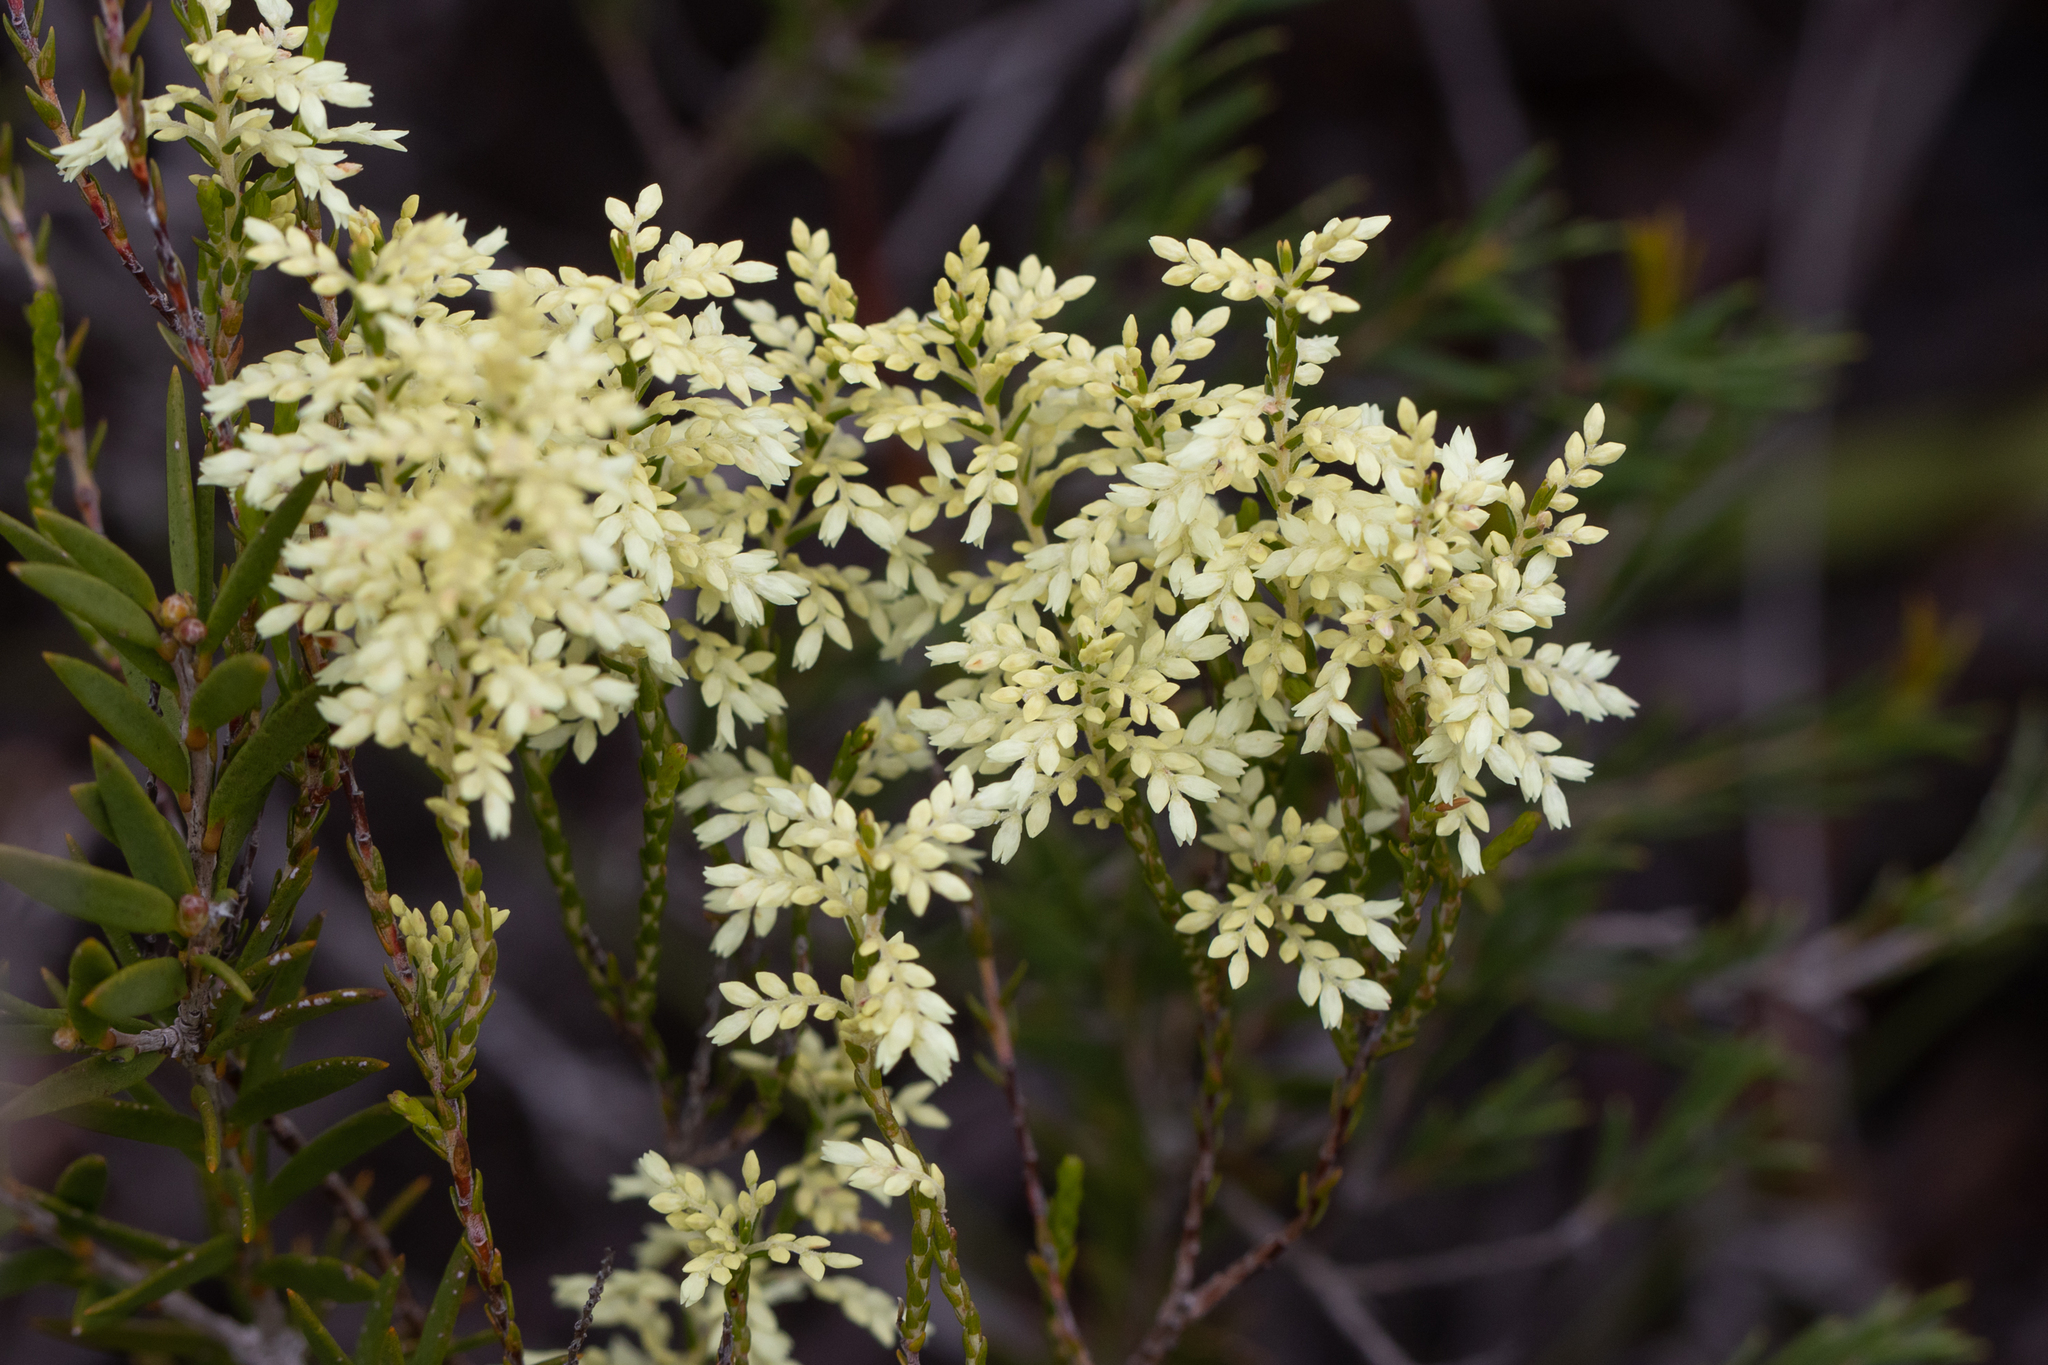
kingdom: Plantae
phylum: Tracheophyta
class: Magnoliopsida
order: Ericales
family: Ericaceae
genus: Oligarrhena
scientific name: Oligarrhena micrantha
